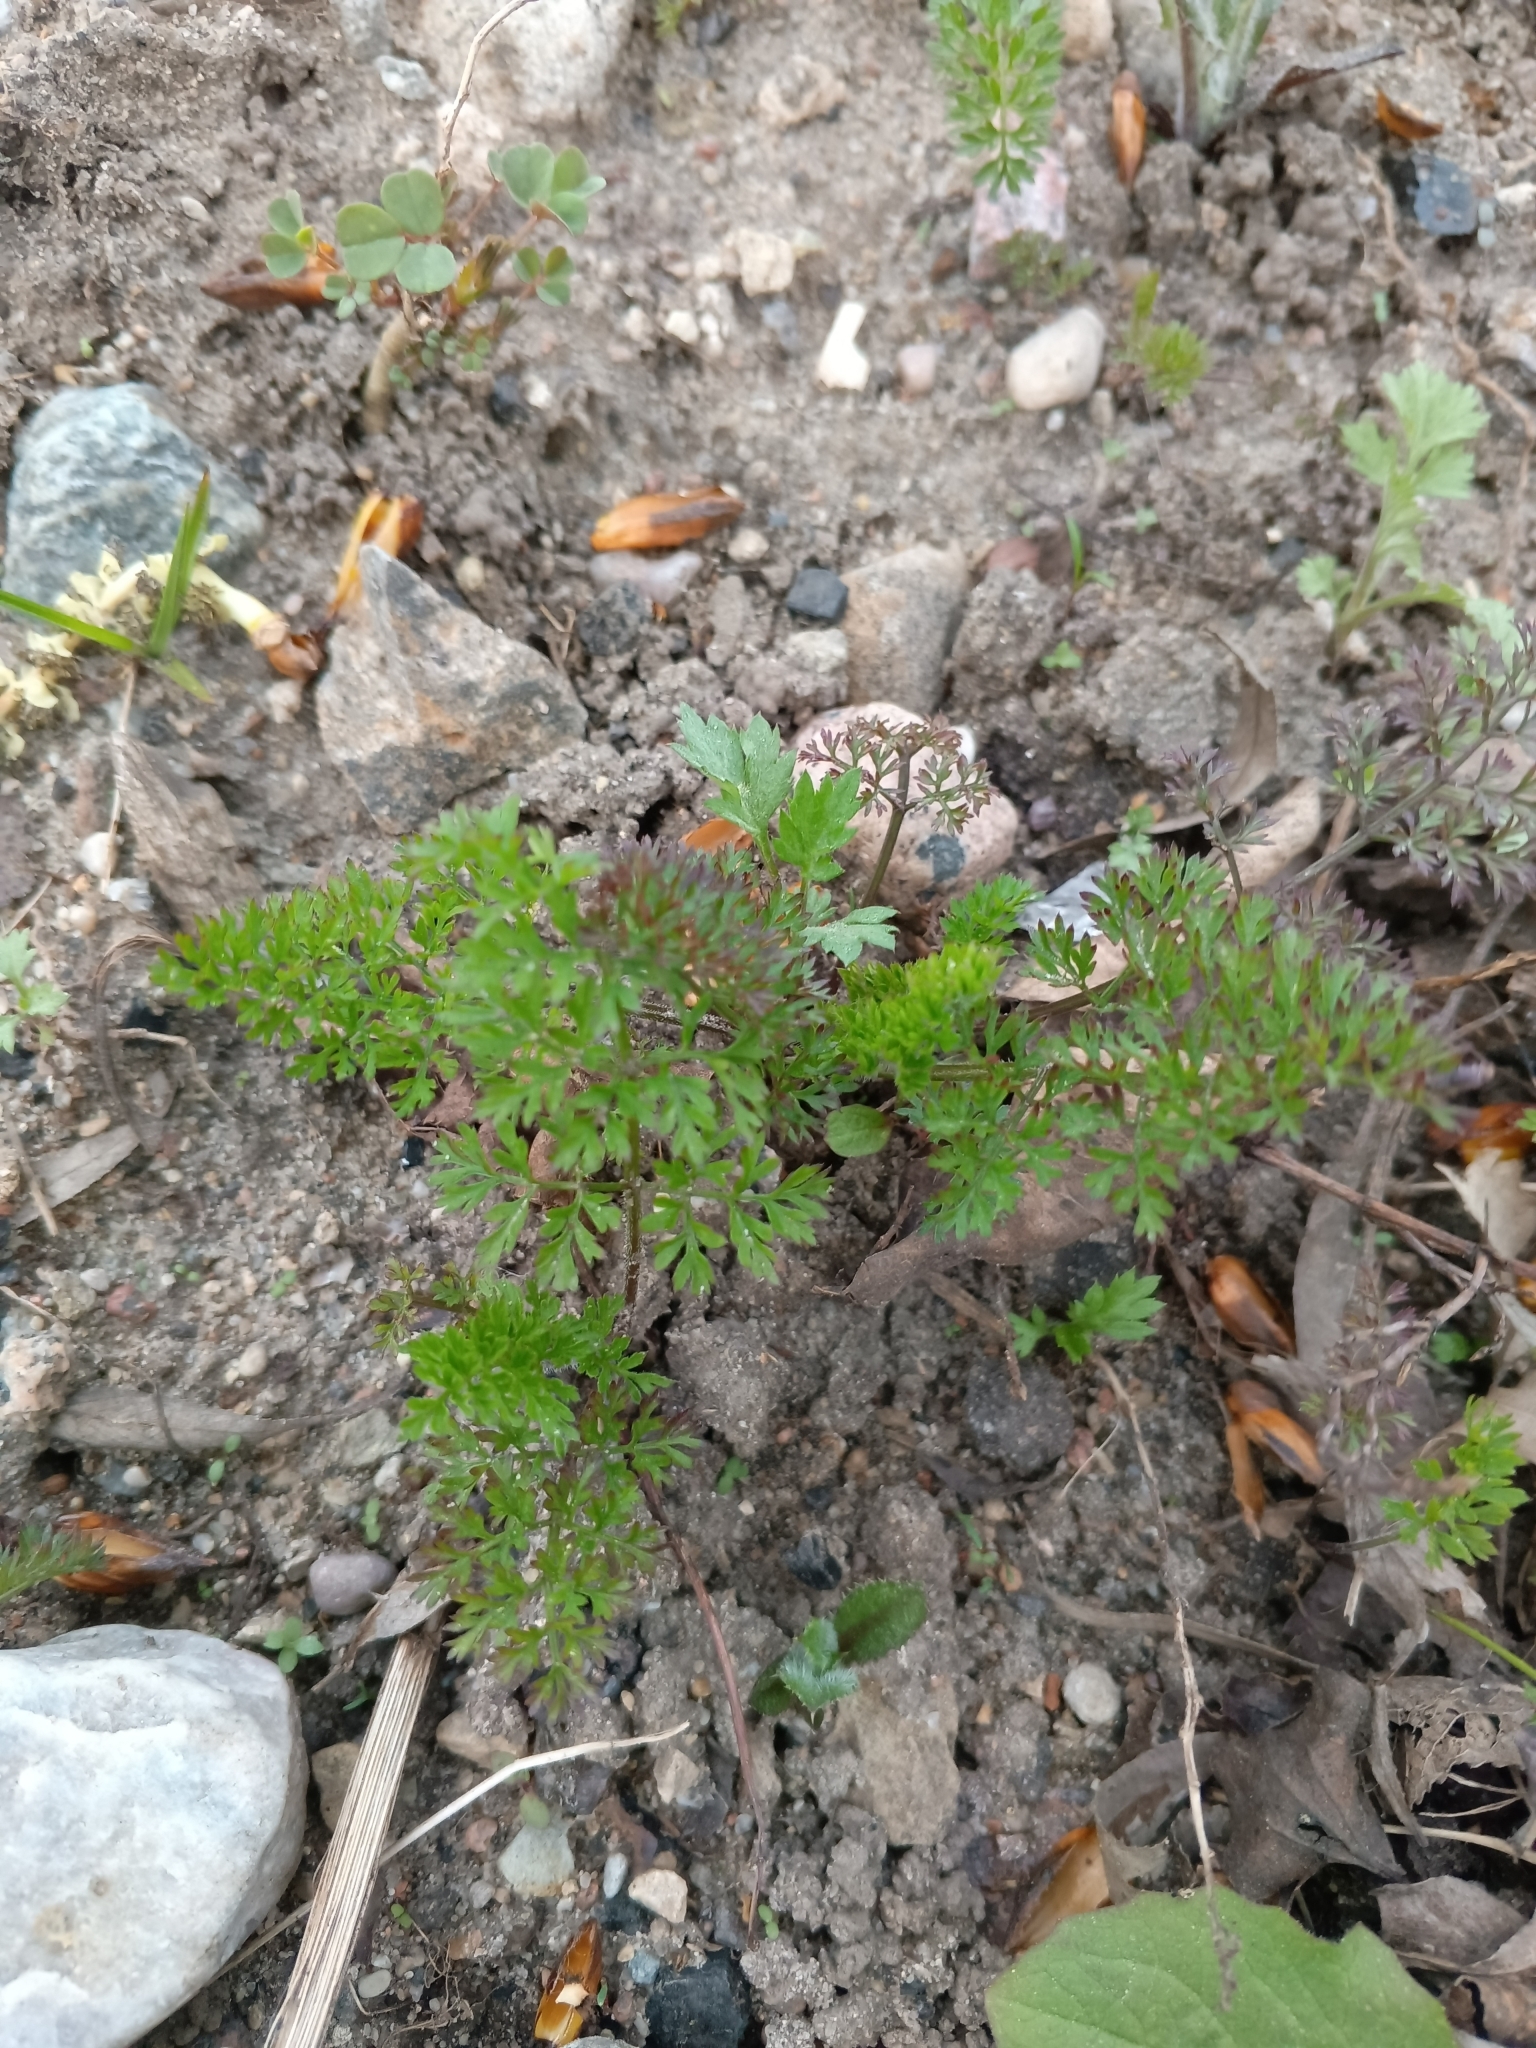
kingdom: Plantae
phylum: Tracheophyta
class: Magnoliopsida
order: Apiales
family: Apiaceae
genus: Daucus
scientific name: Daucus carota
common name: Wild carrot
